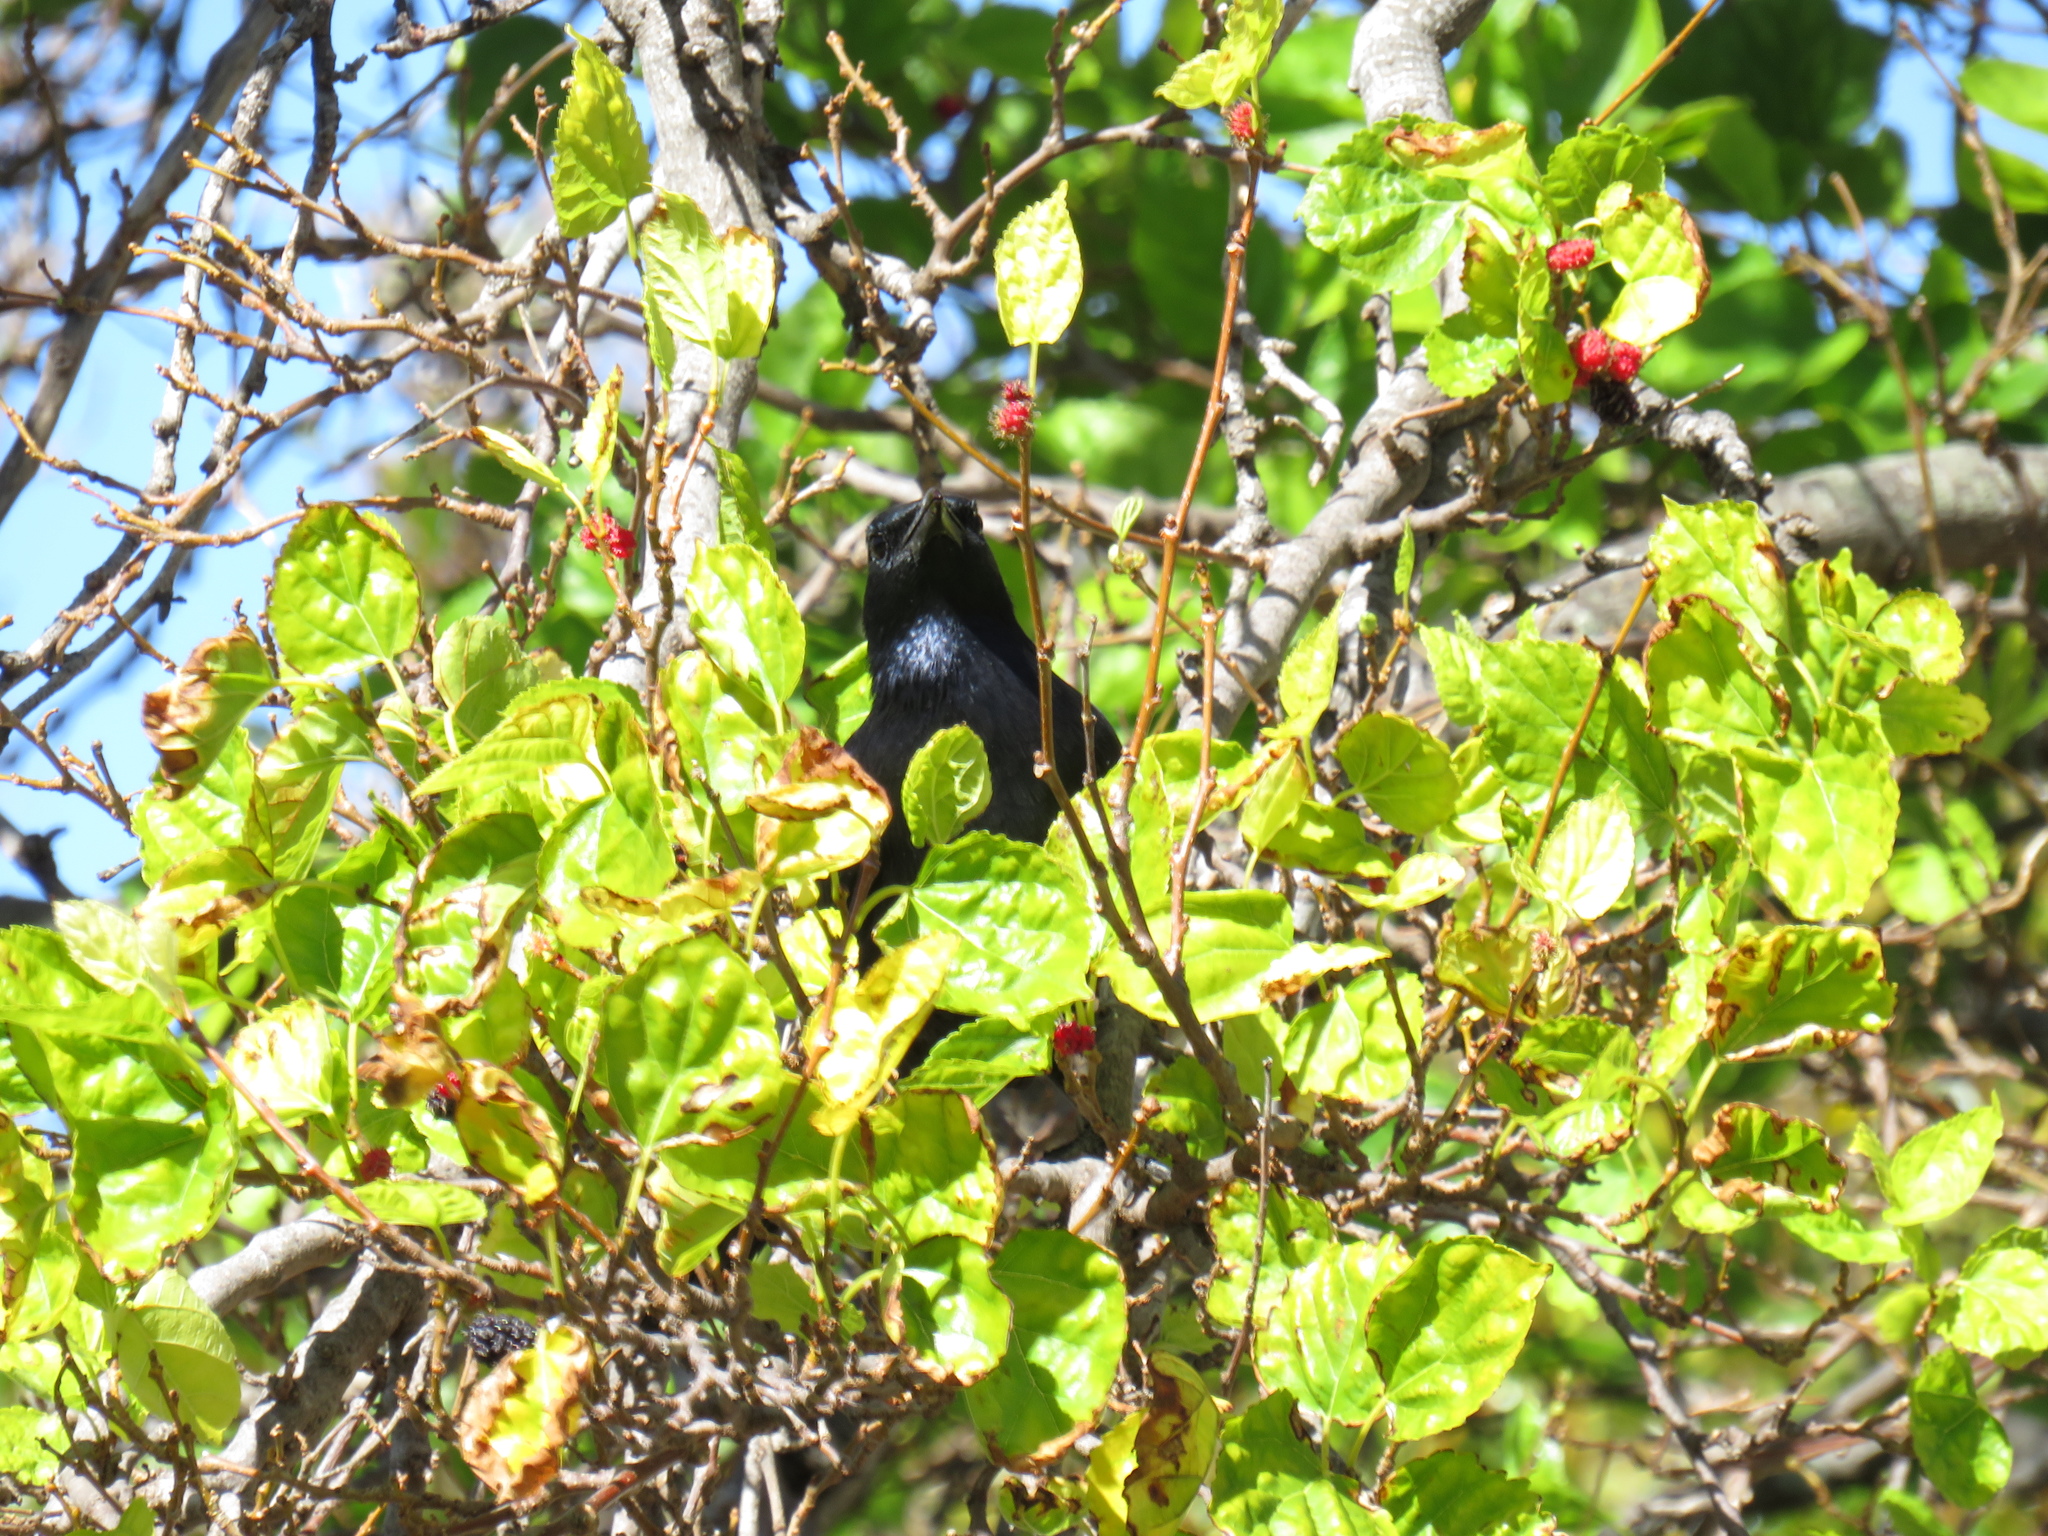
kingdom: Animalia
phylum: Chordata
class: Aves
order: Passeriformes
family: Sturnidae
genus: Onychognathus
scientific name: Onychognathus morio
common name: Red-winged starling
